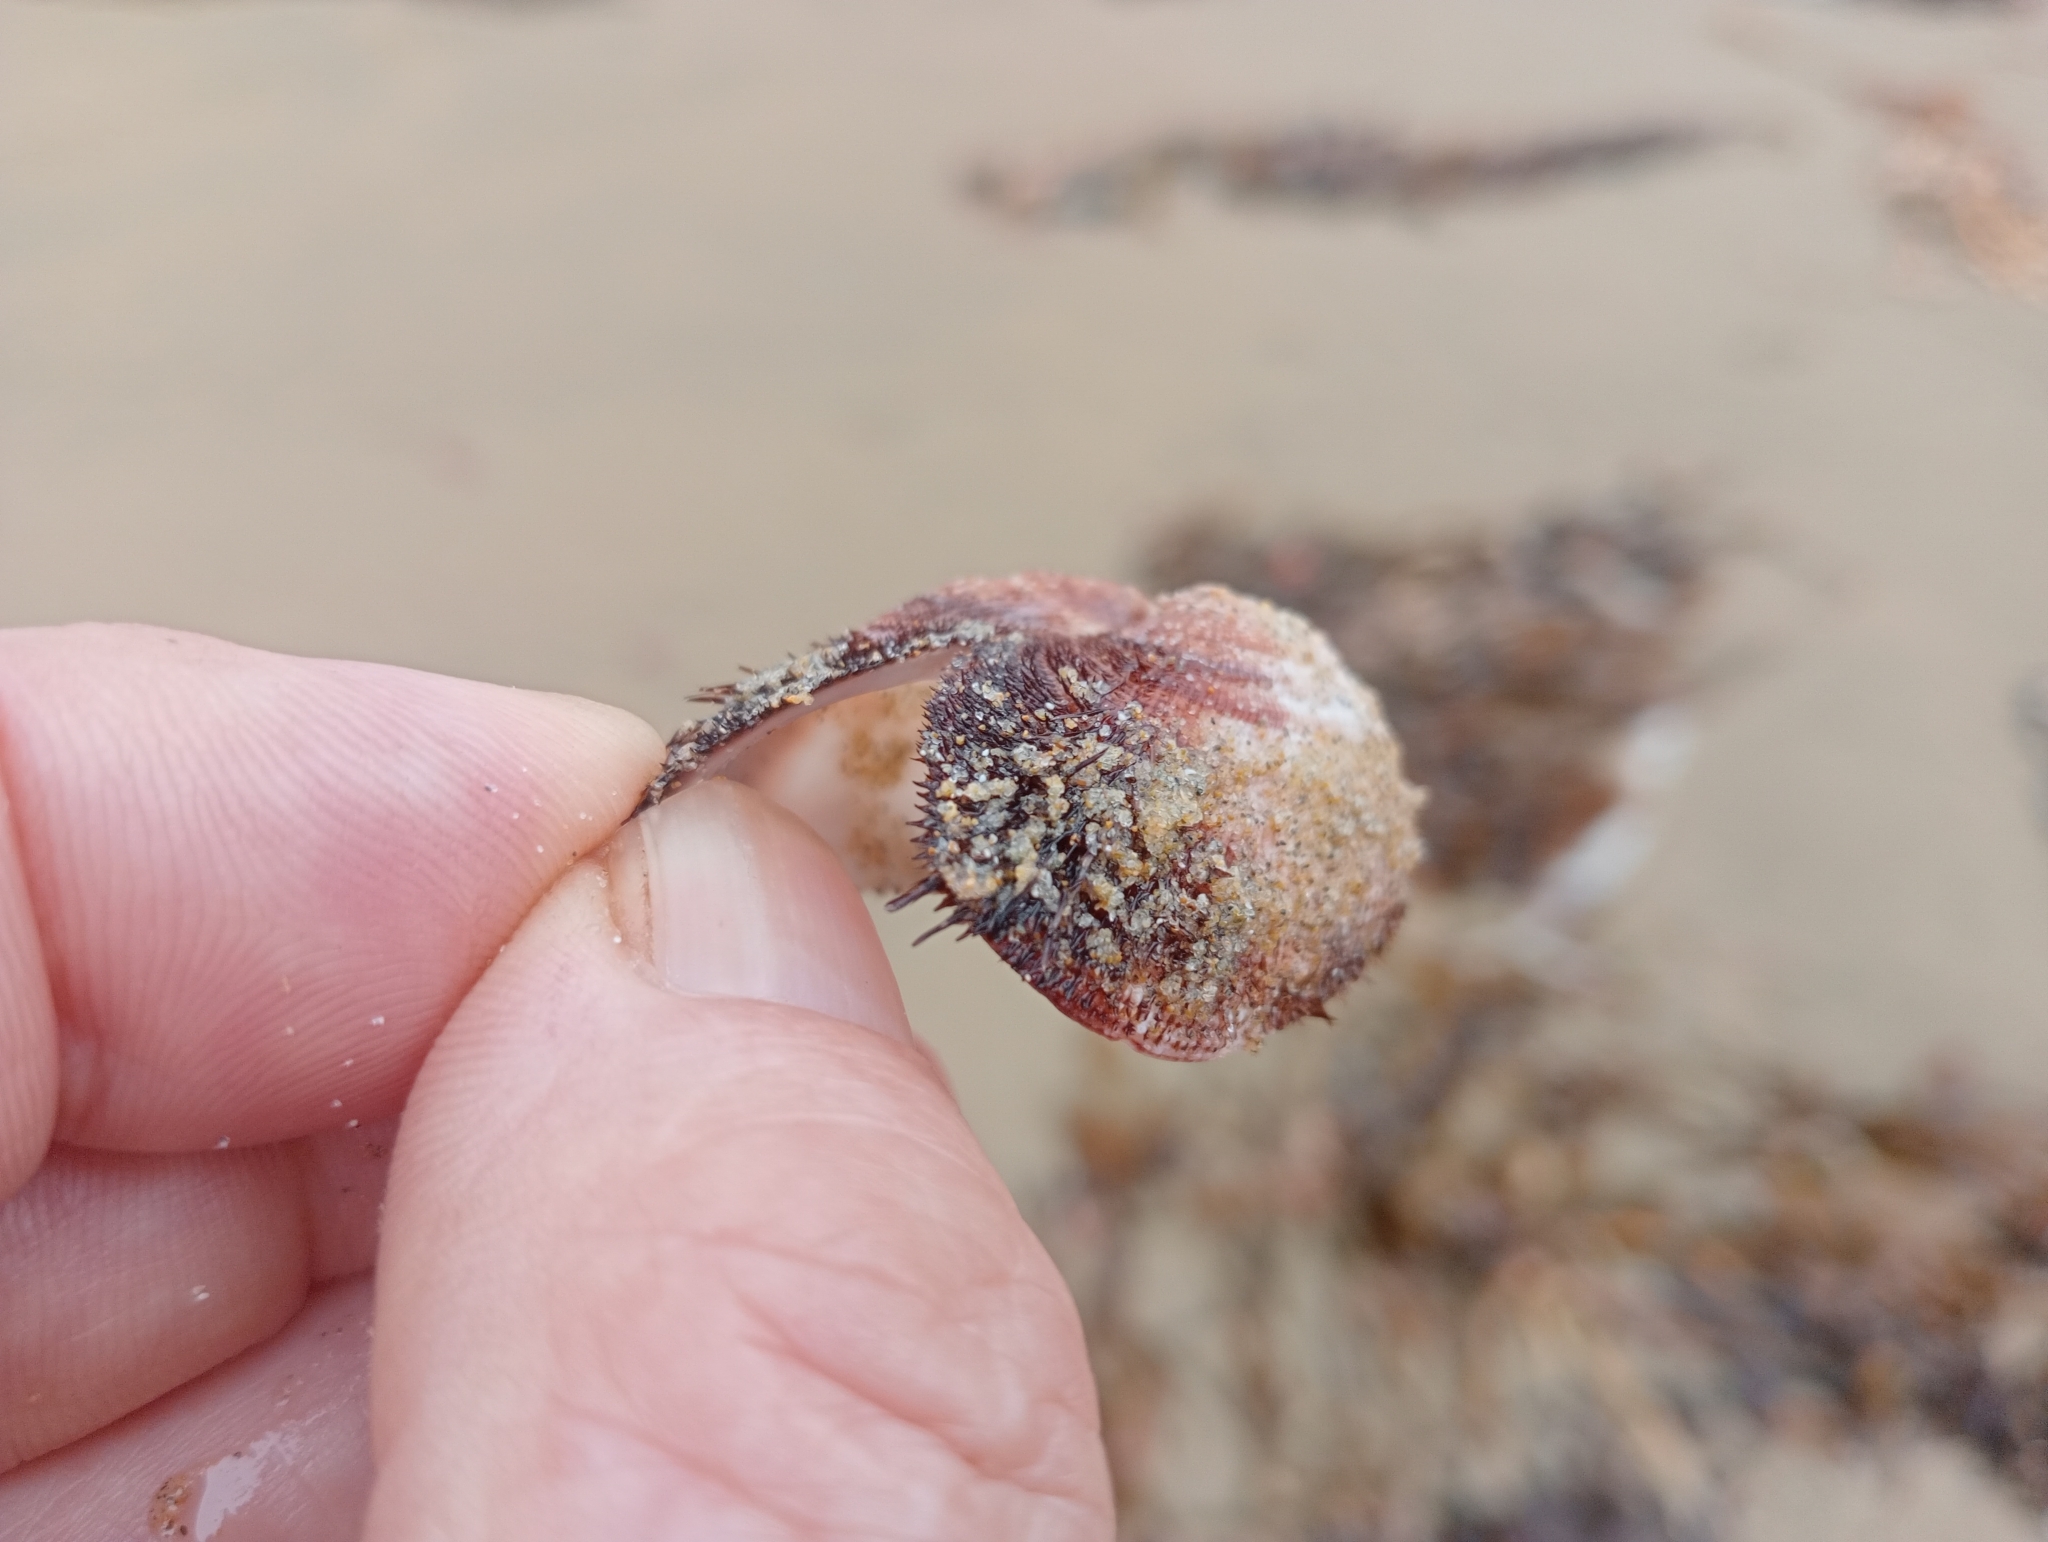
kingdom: Animalia
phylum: Mollusca
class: Bivalvia
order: Arcida
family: Arcidae
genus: Barbatia
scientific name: Barbatia novaezealandiae
